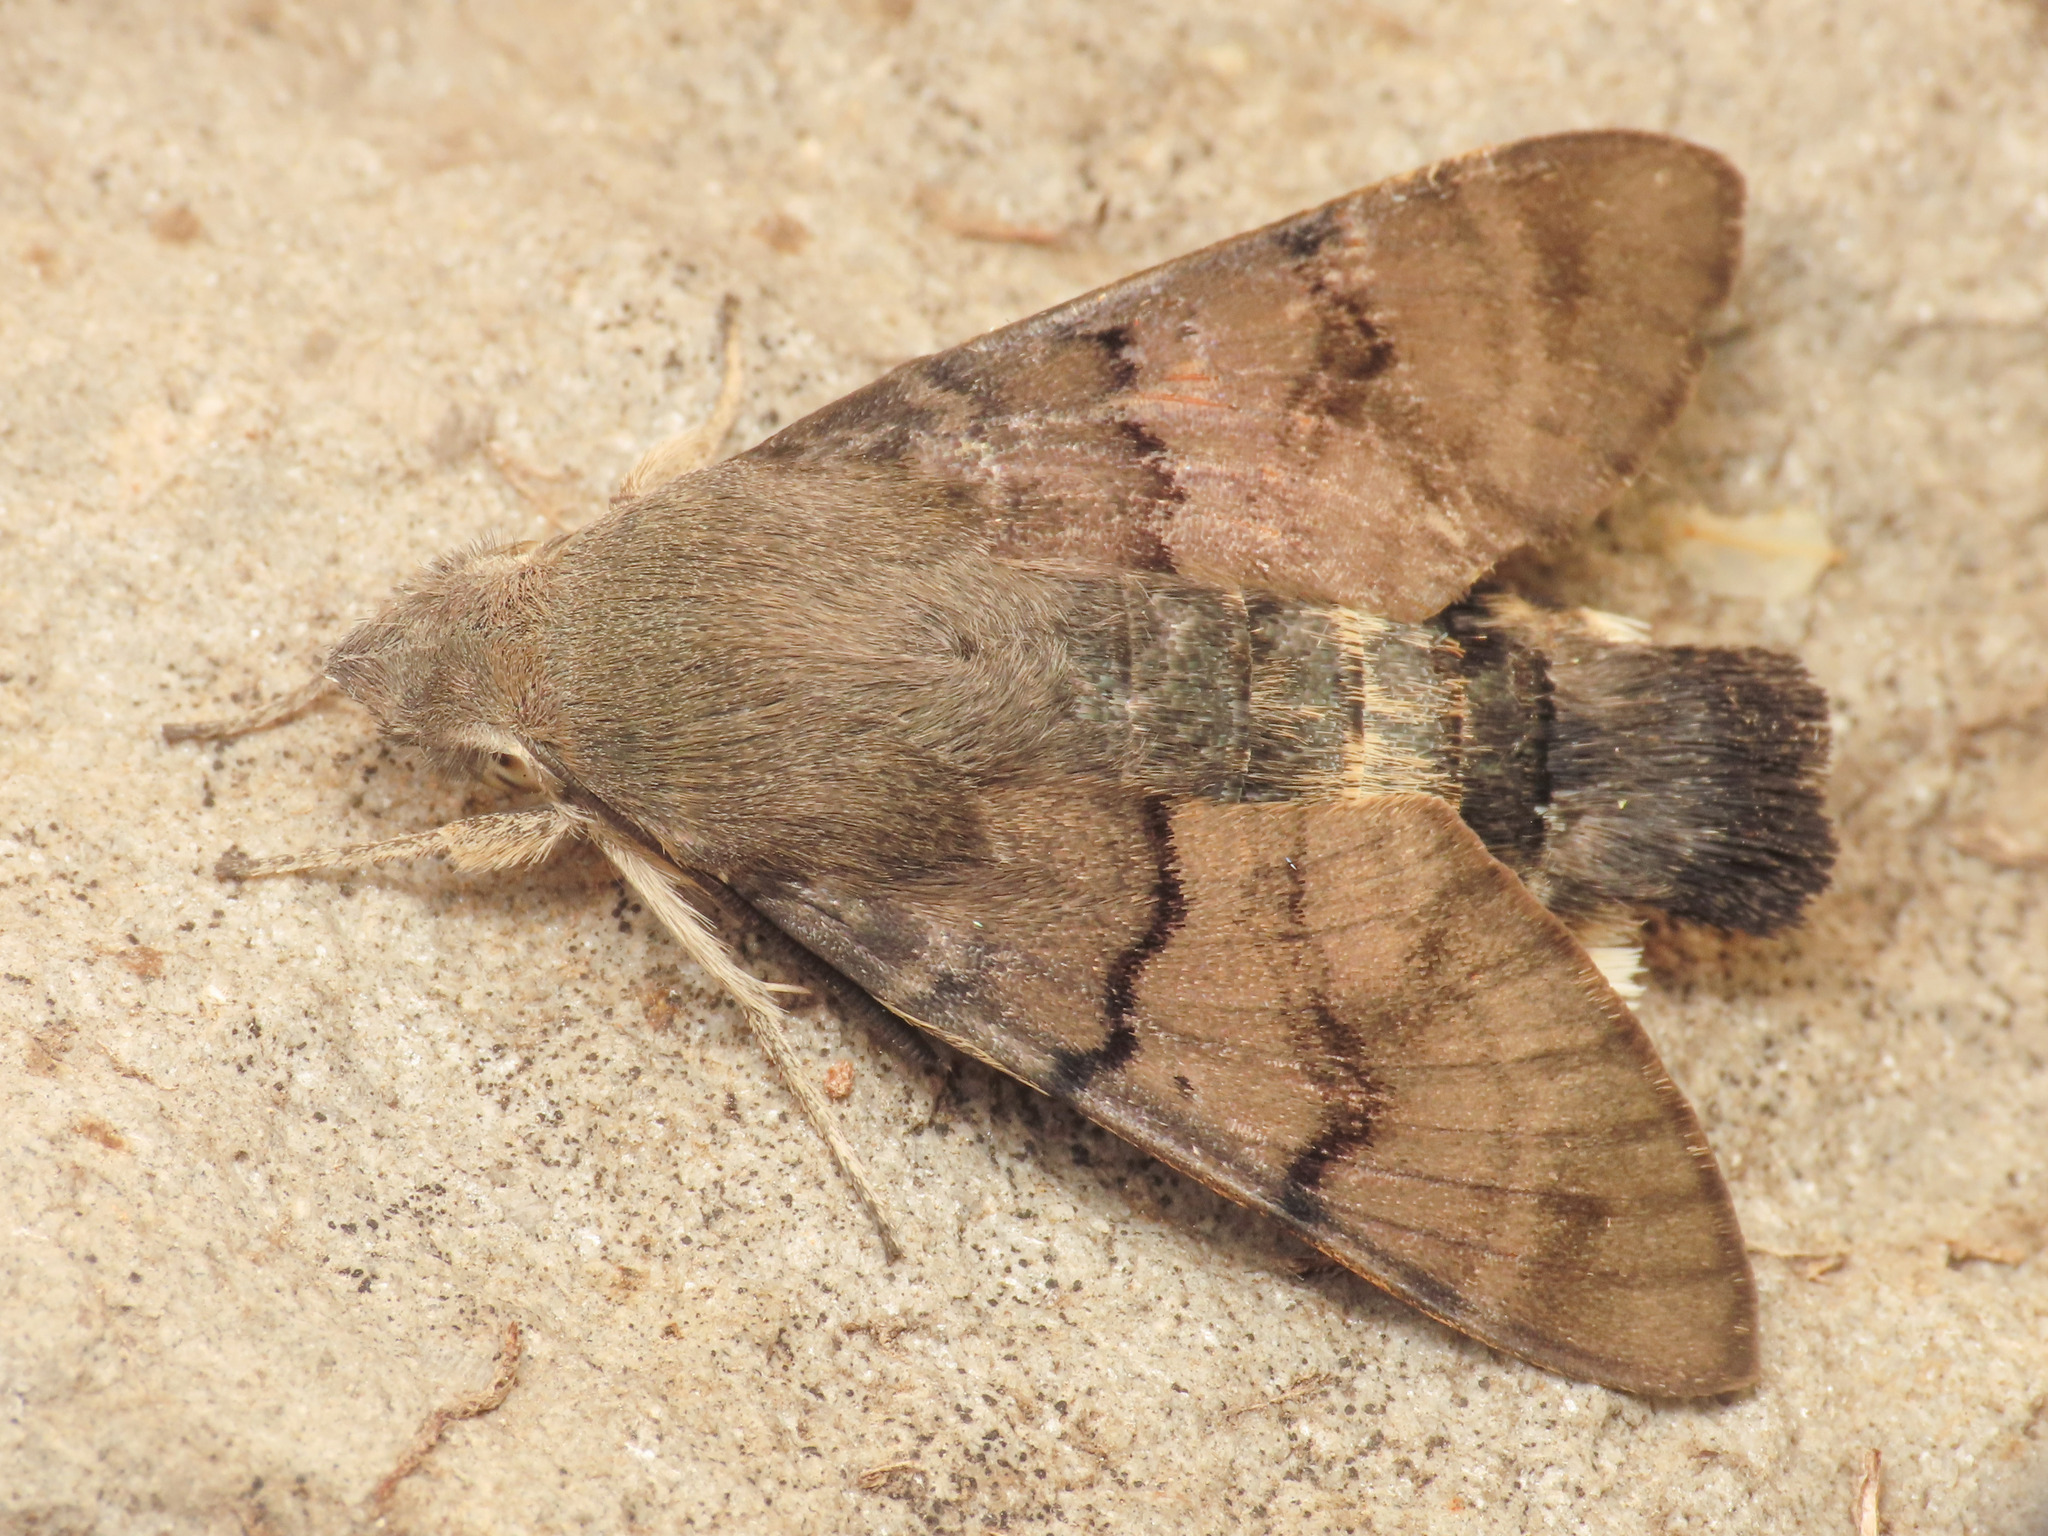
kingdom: Animalia
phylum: Arthropoda
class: Insecta
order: Lepidoptera
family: Sphingidae
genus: Macroglossum
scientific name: Macroglossum stellatarum
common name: Humming-bird hawk-moth
